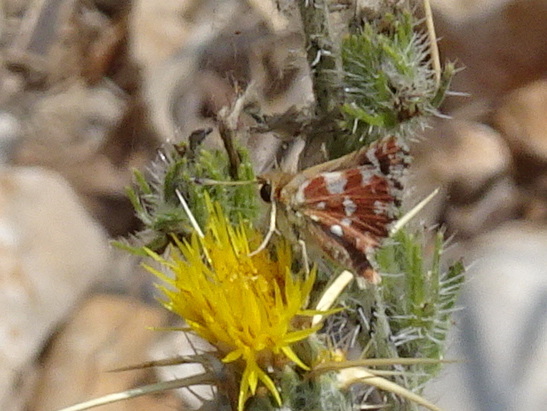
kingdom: Animalia
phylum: Arthropoda
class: Insecta
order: Lepidoptera
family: Hesperiidae
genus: Spialia
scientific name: Spialia sertorius
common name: Red underwing skipper
